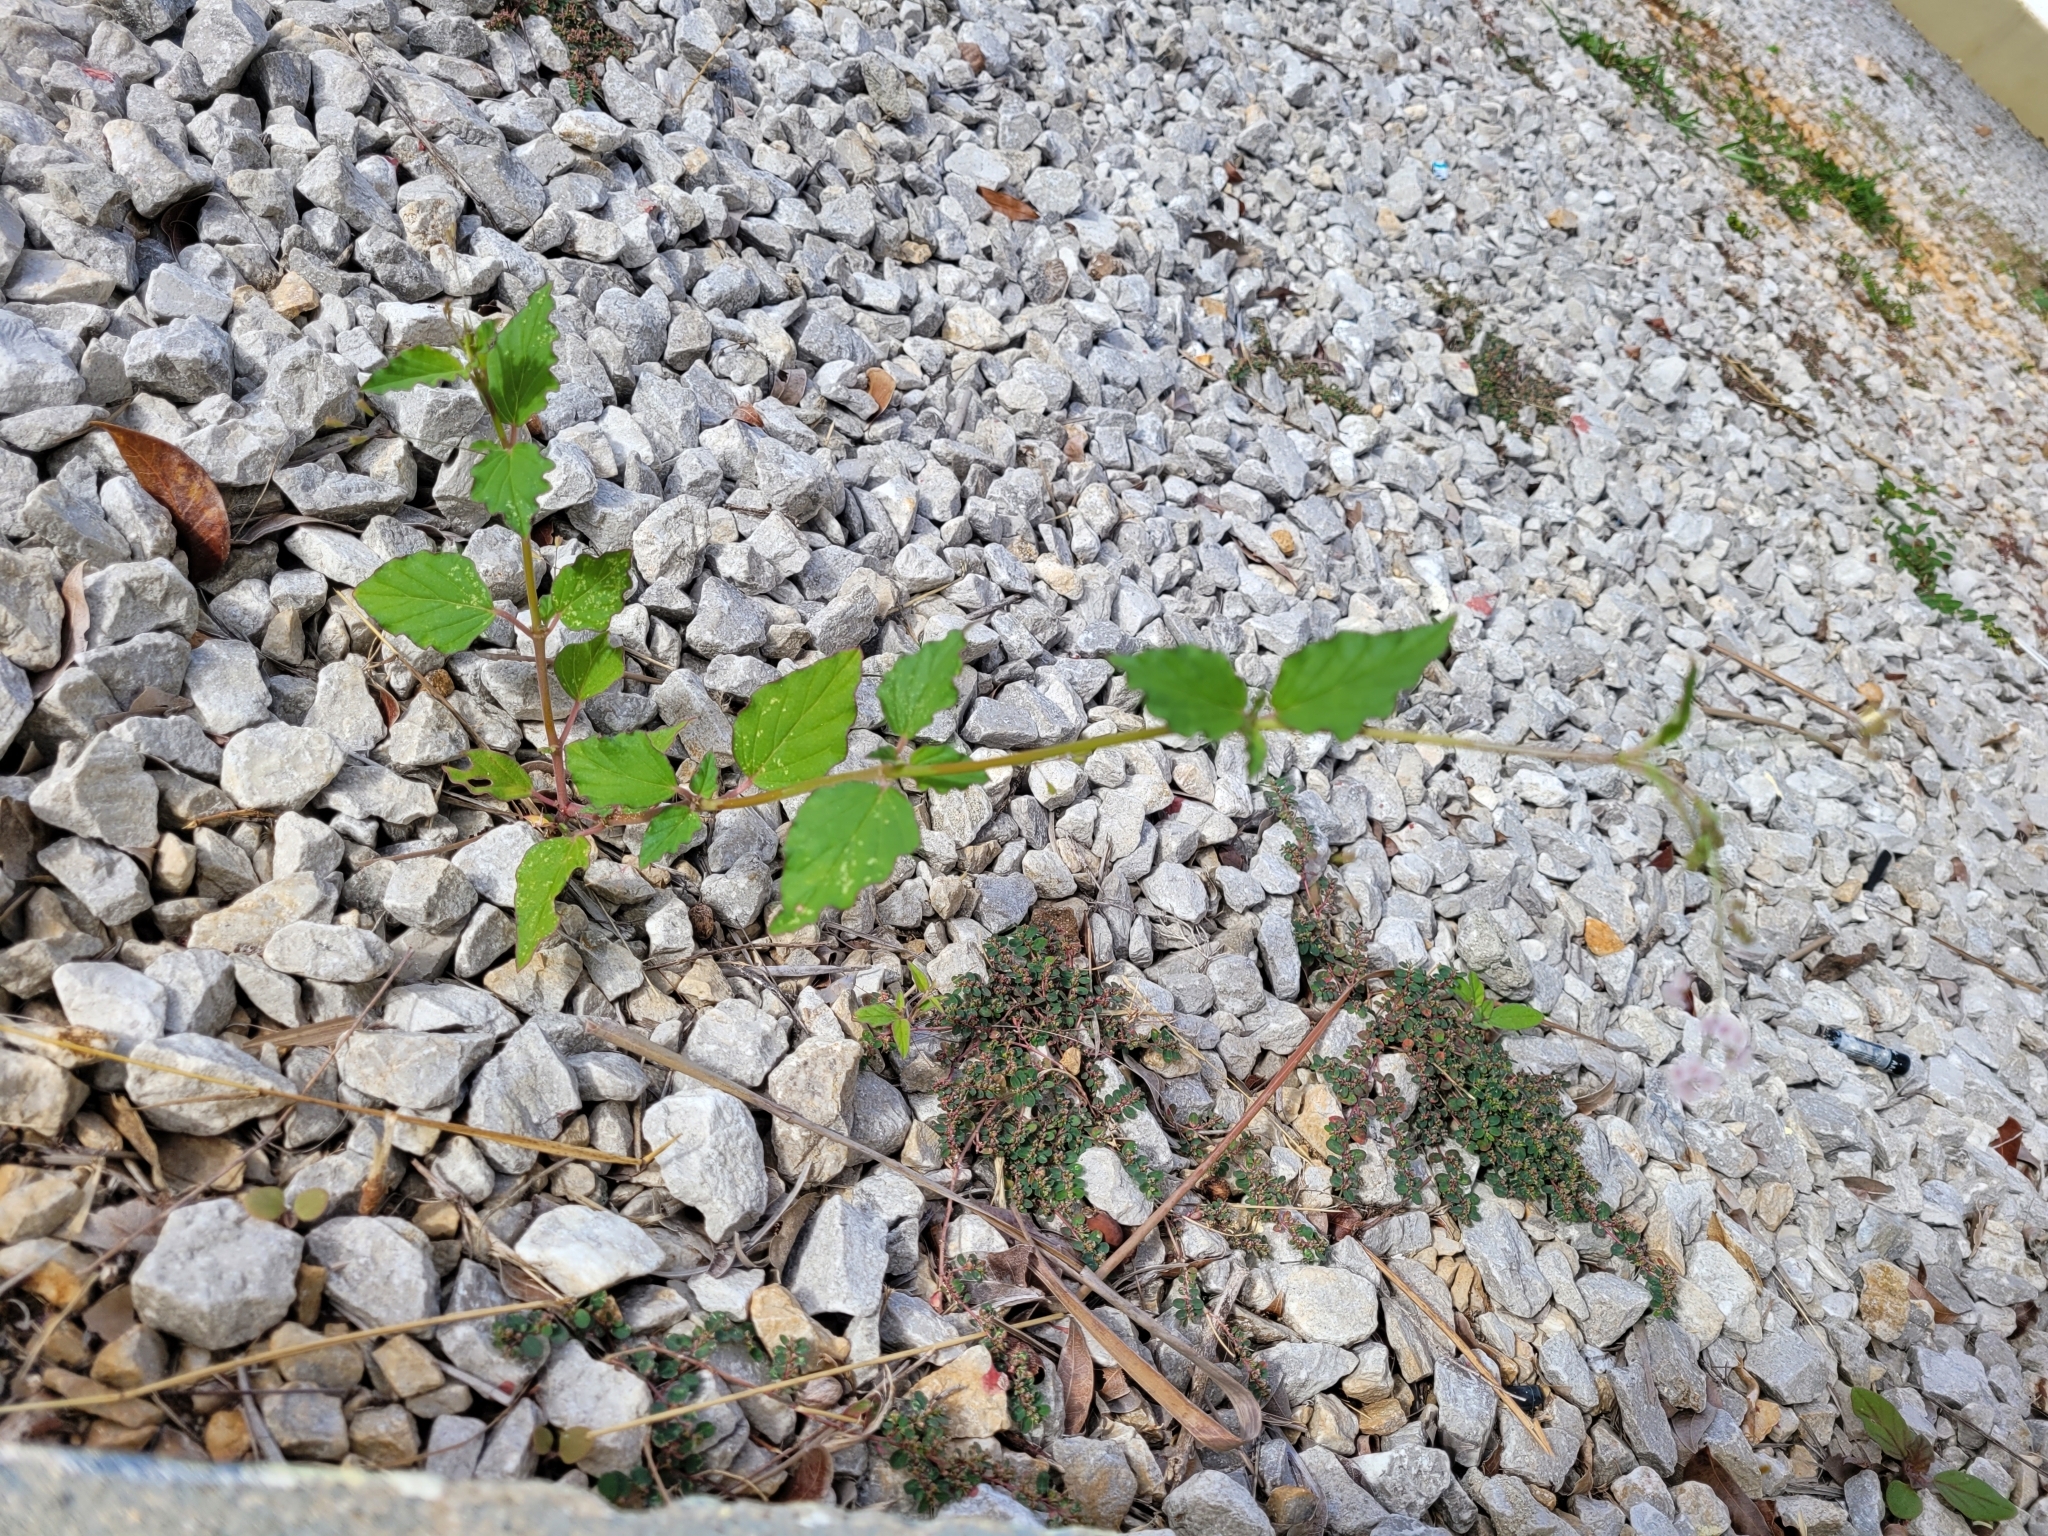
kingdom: Plantae
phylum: Tracheophyta
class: Magnoliopsida
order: Caryophyllales
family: Nyctaginaceae
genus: Boerhavia
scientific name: Boerhavia erecta
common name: Erect spiderling
